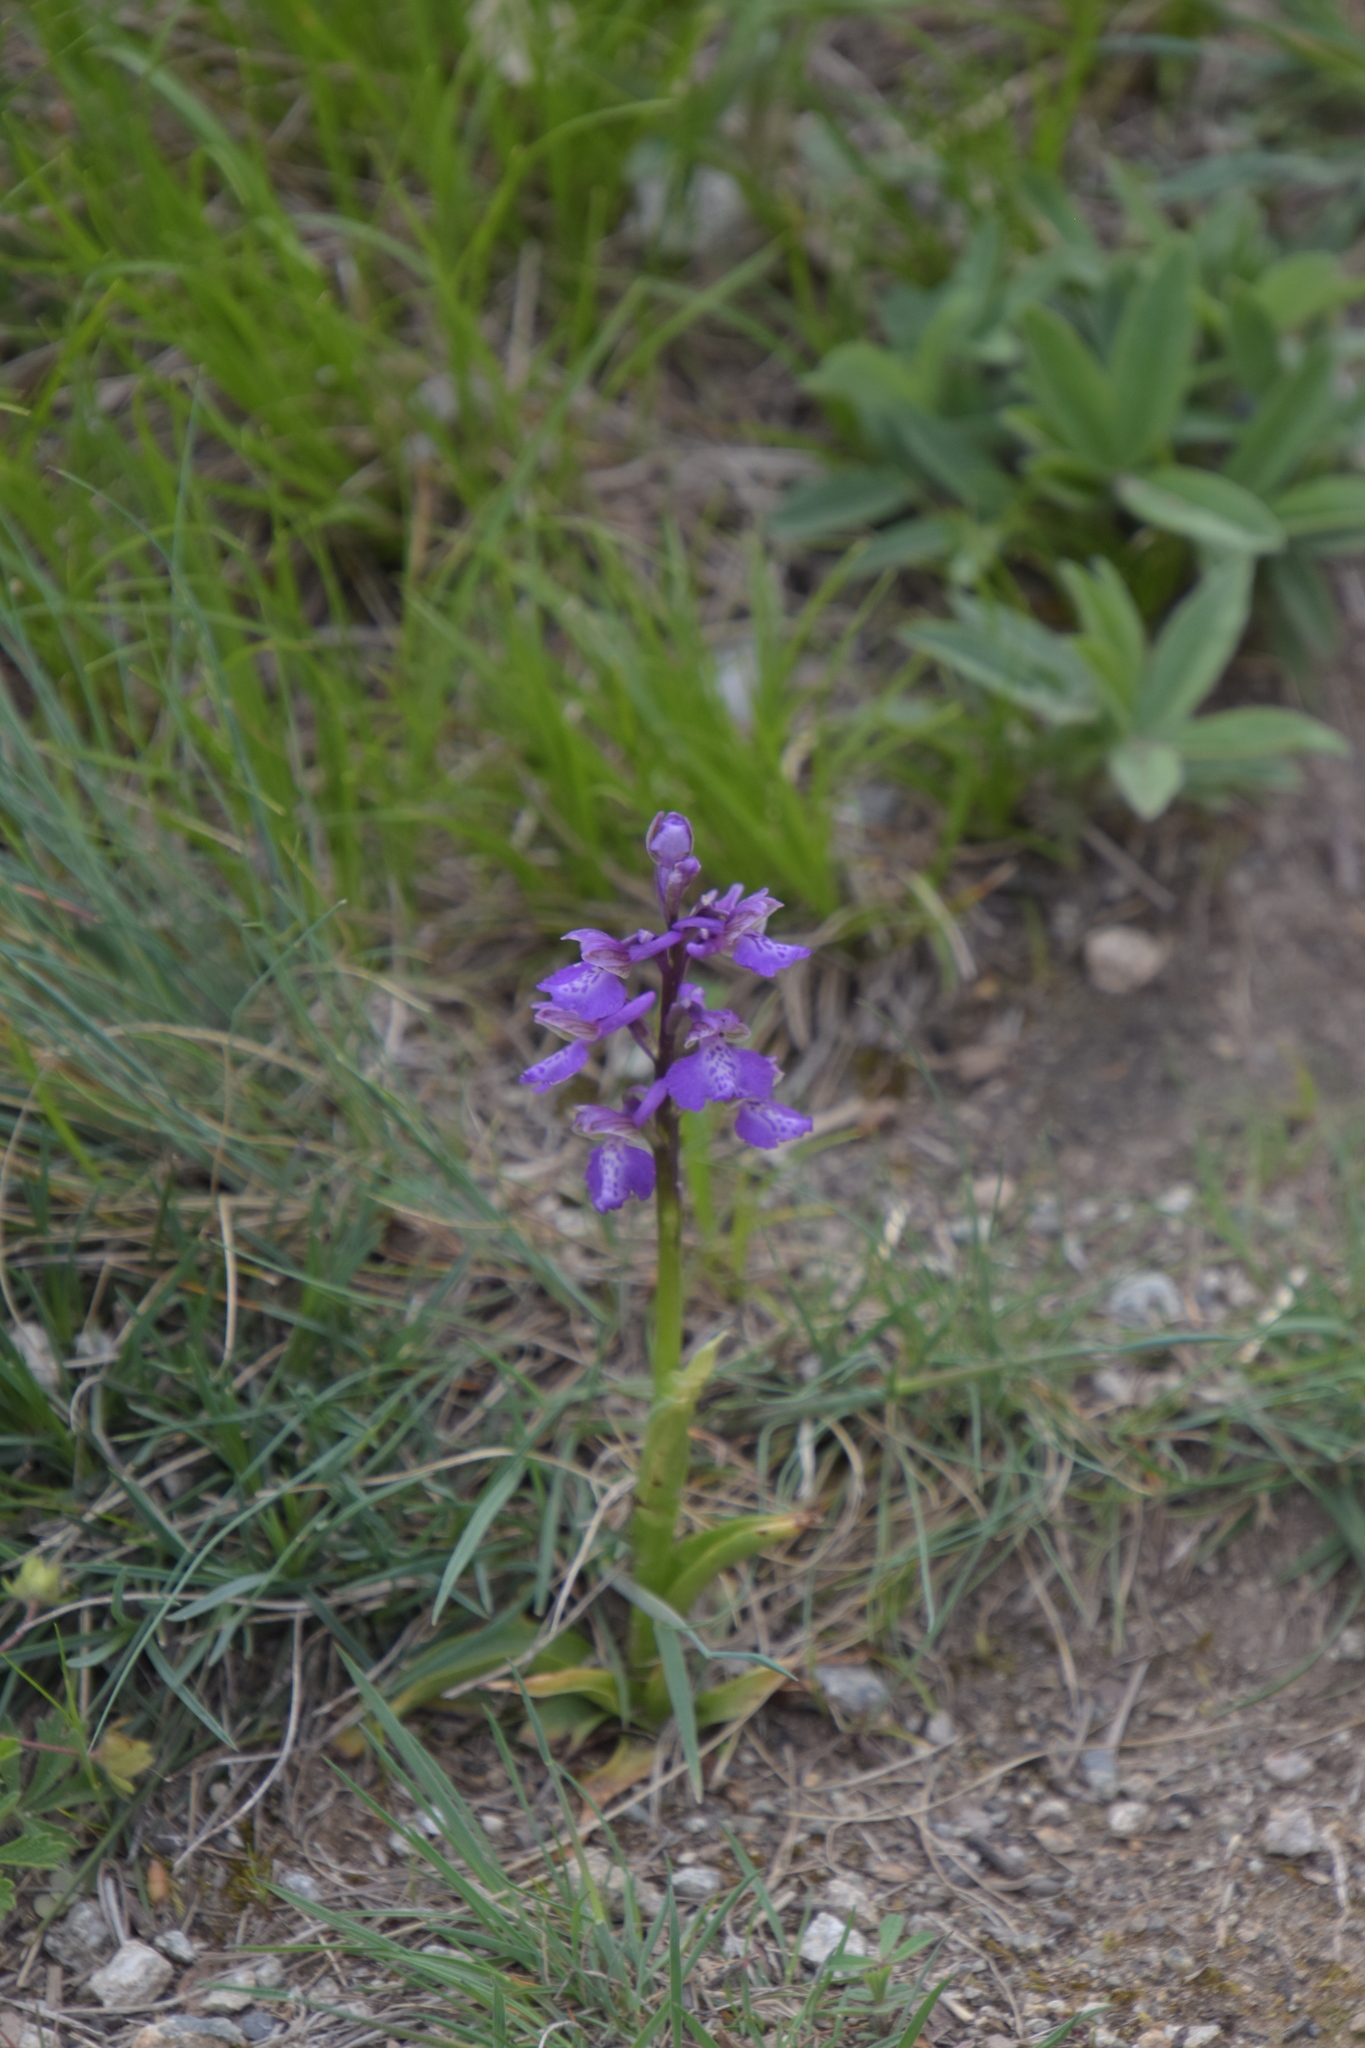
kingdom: Plantae
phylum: Tracheophyta
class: Liliopsida
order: Asparagales
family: Orchidaceae
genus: Anacamptis
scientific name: Anacamptis morio
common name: Green-winged orchid
